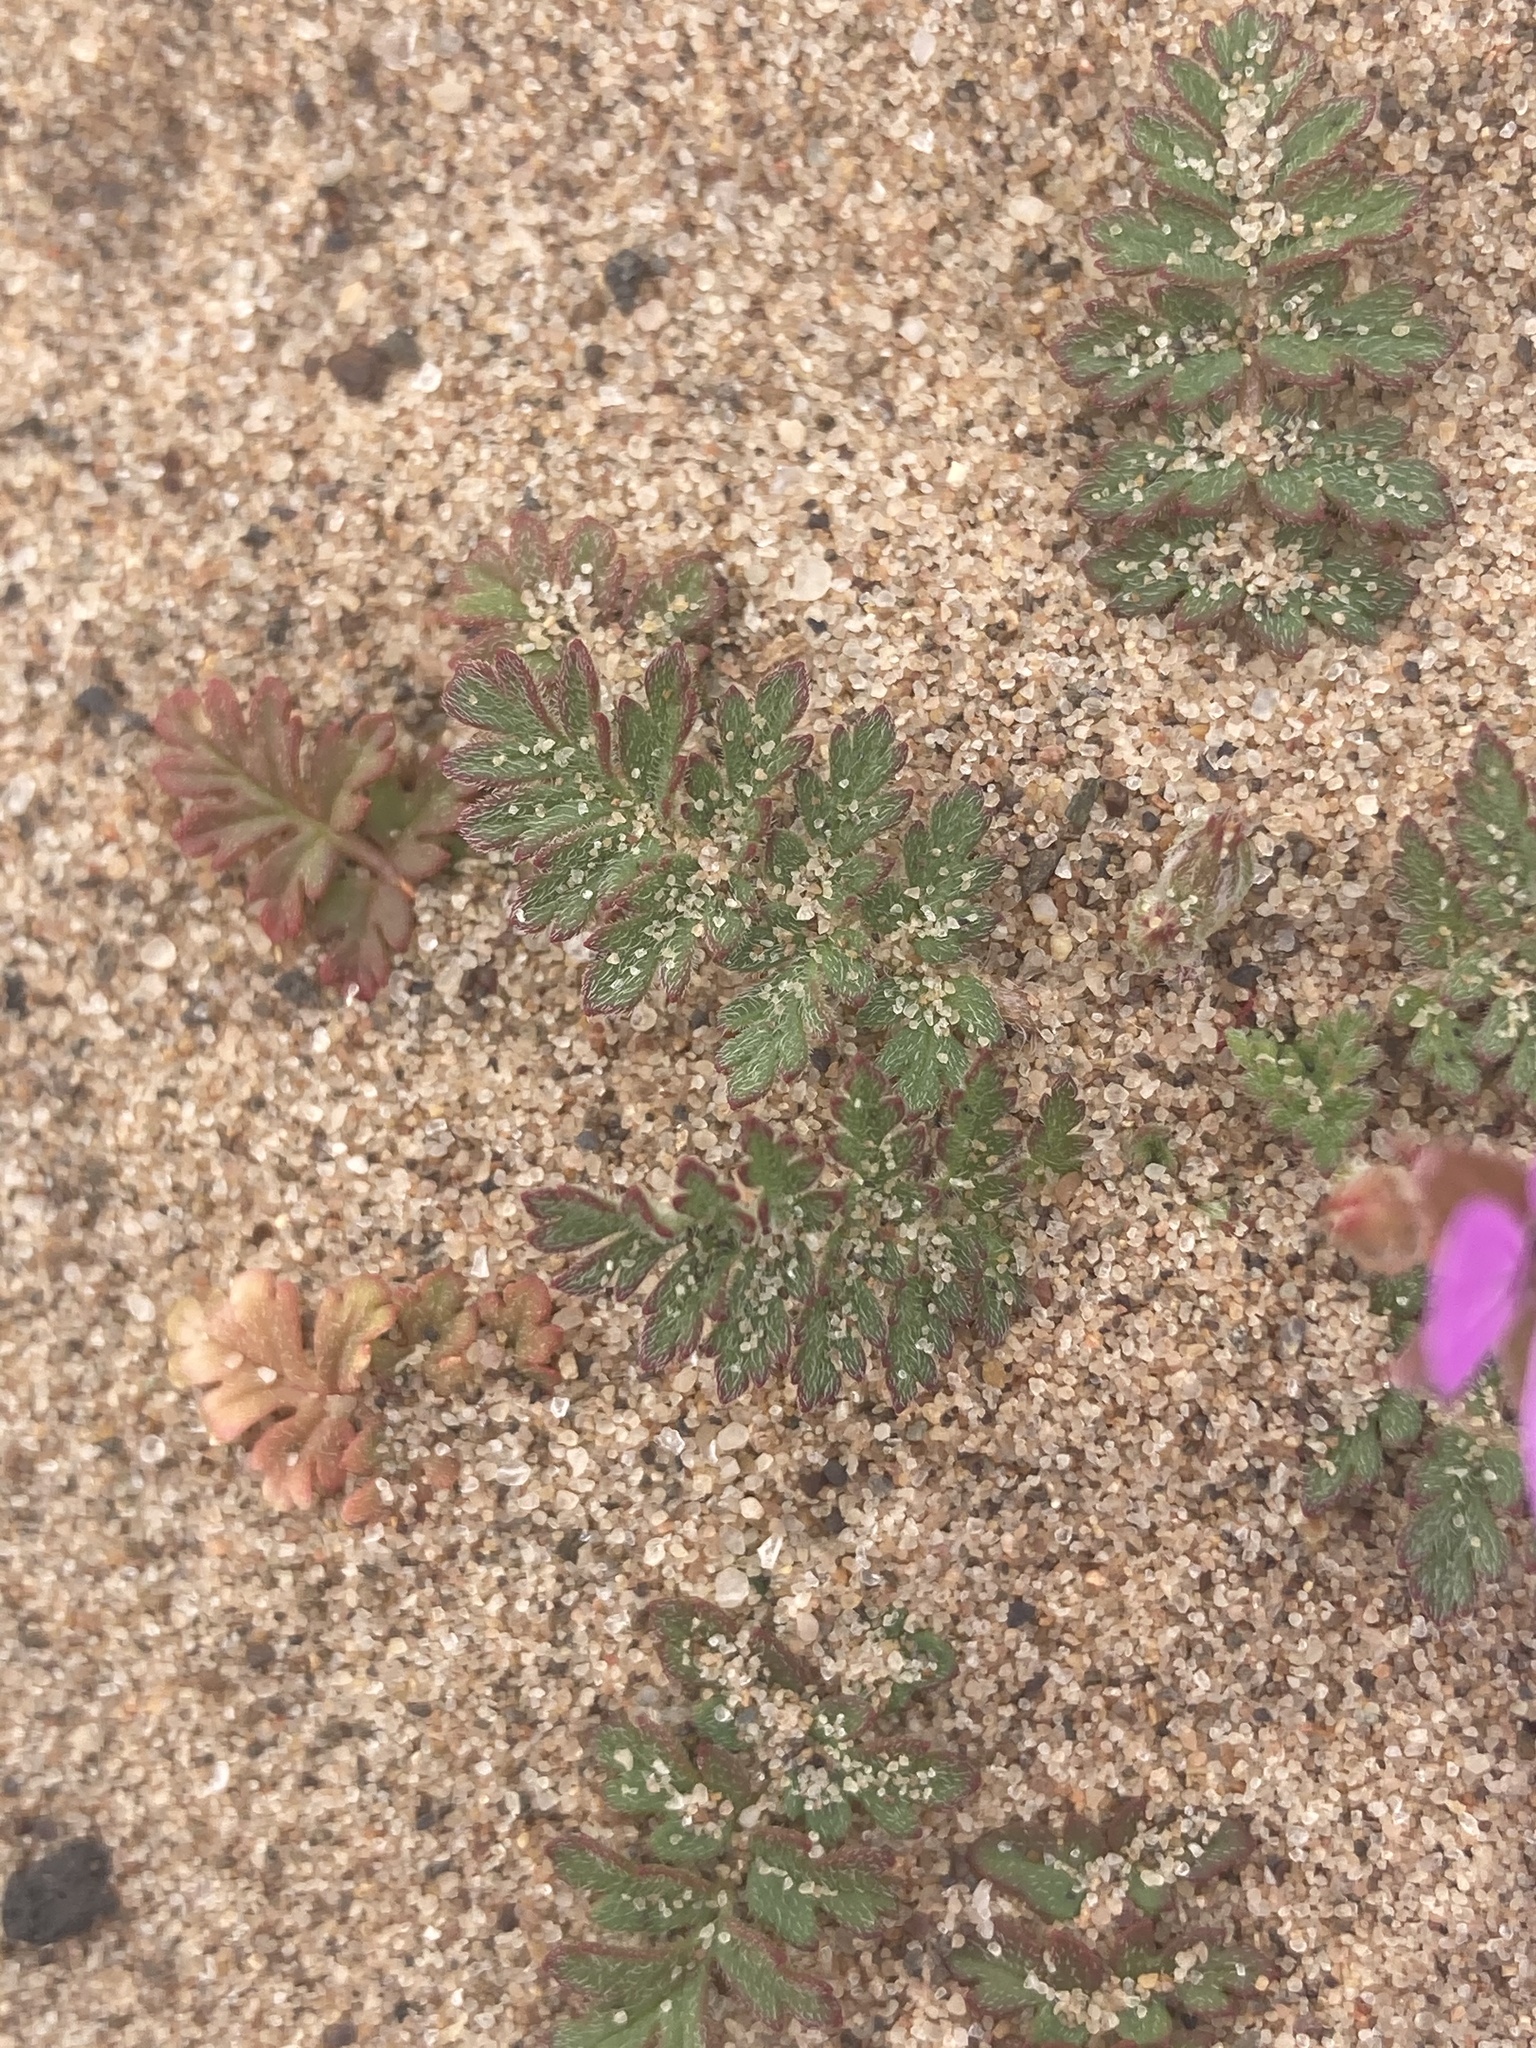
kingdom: Plantae
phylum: Tracheophyta
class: Magnoliopsida
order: Geraniales
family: Geraniaceae
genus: Erodium
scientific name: Erodium cicutarium
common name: Common stork's-bill
